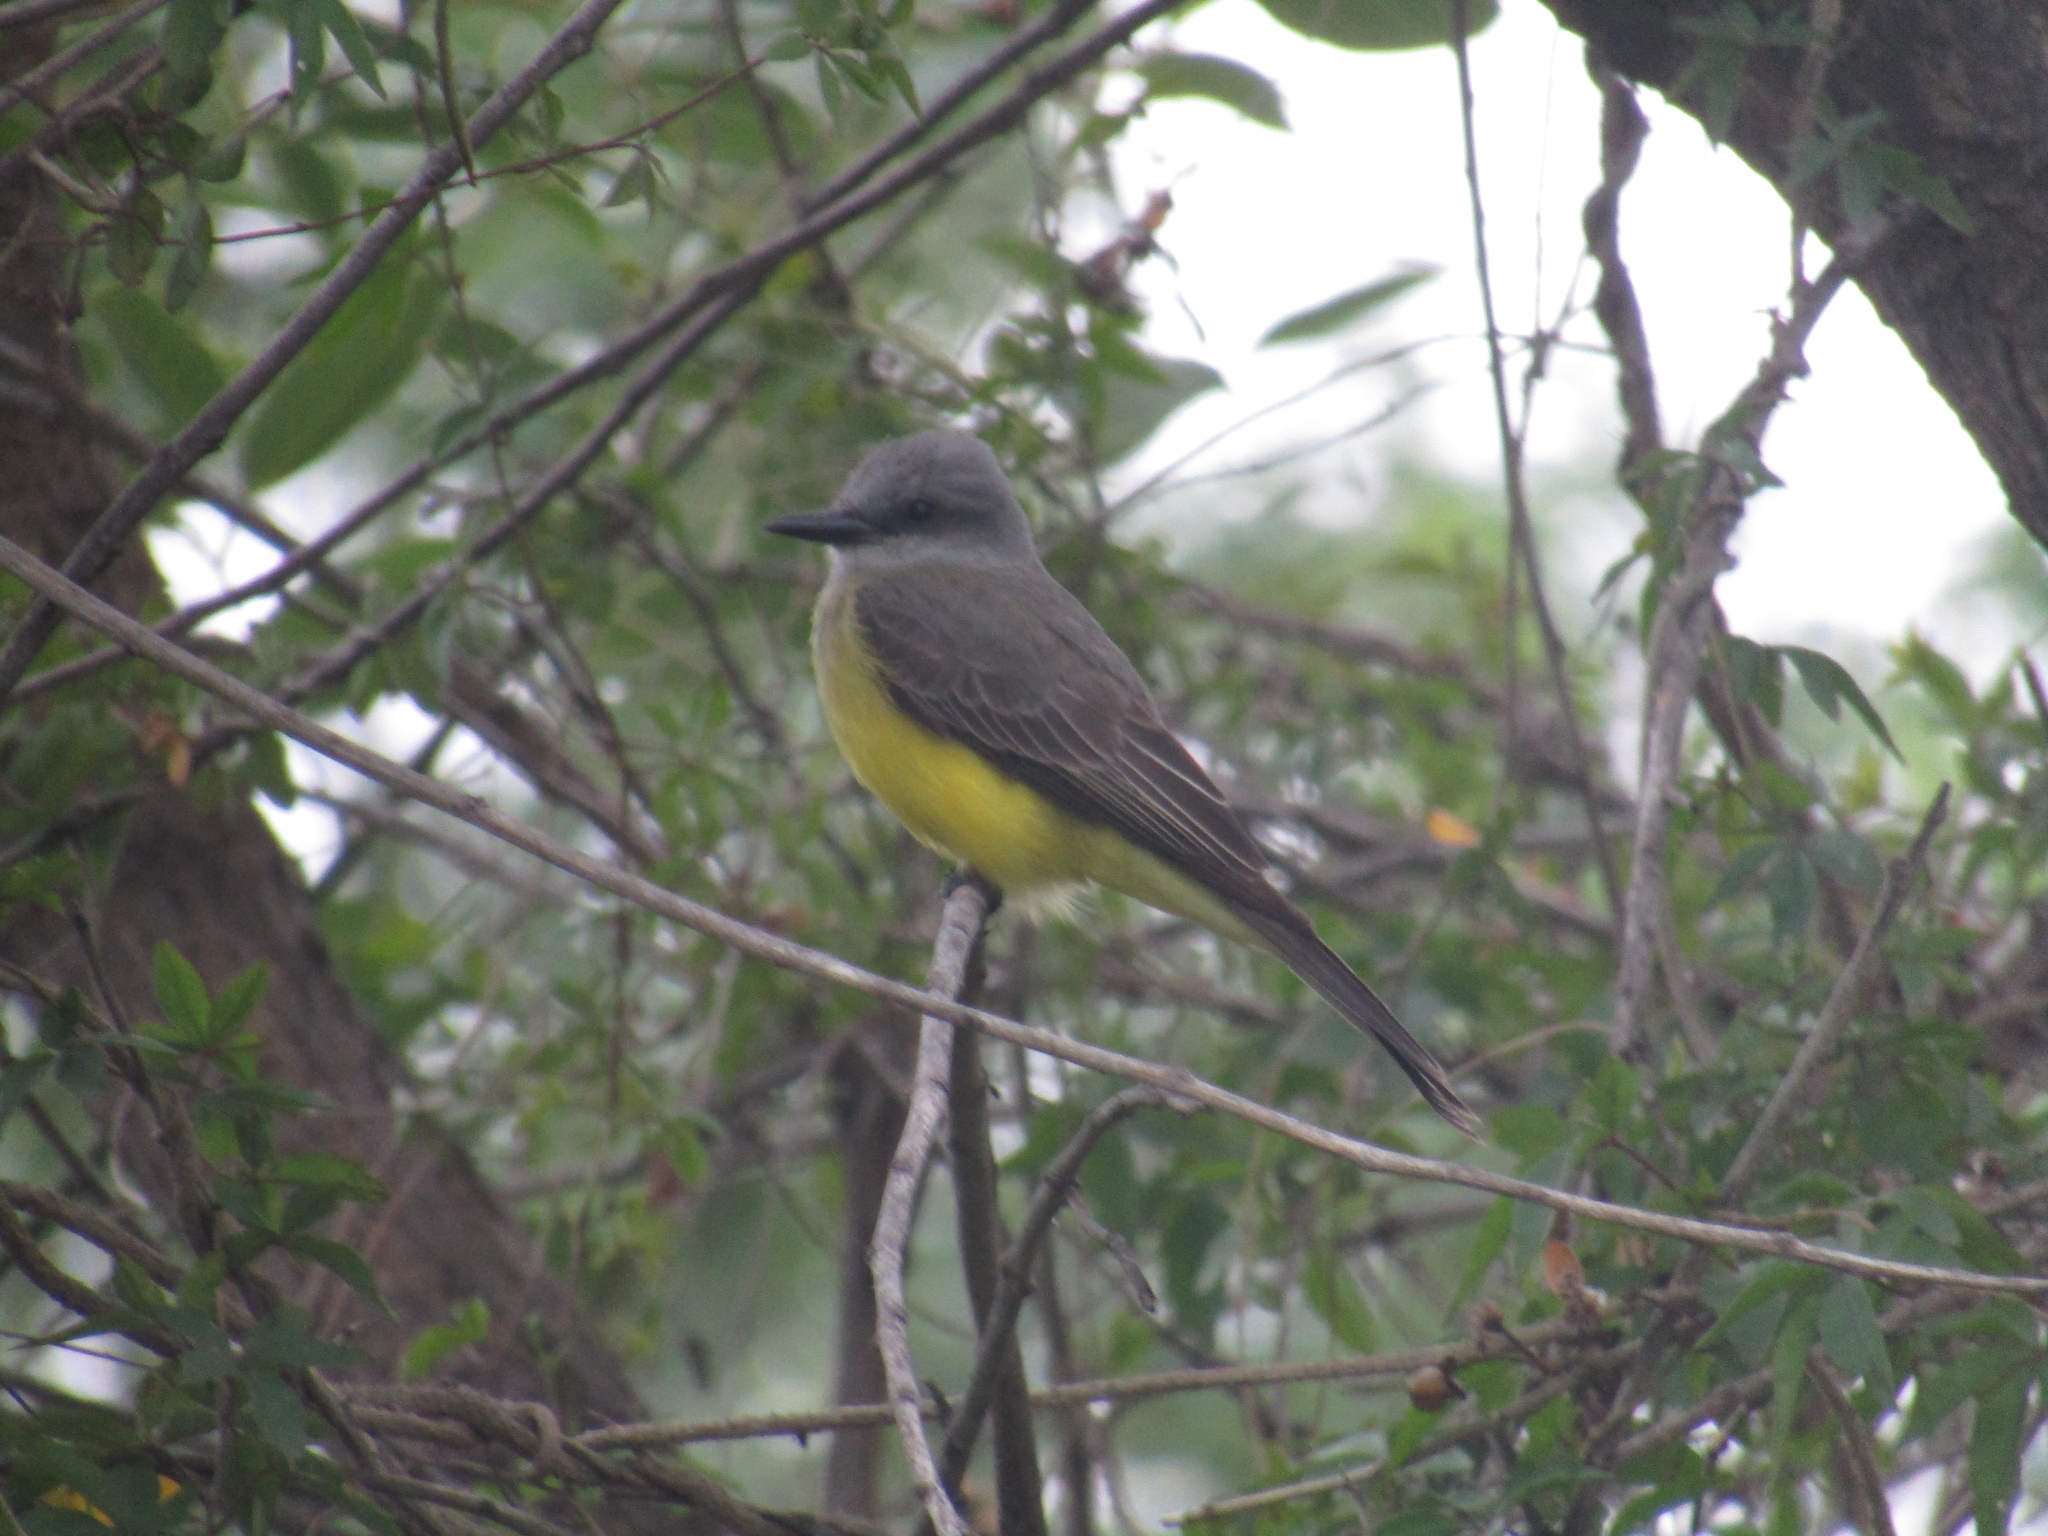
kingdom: Animalia
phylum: Chordata
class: Aves
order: Passeriformes
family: Tyrannidae
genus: Tyrannus
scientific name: Tyrannus melancholicus
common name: Tropical kingbird
